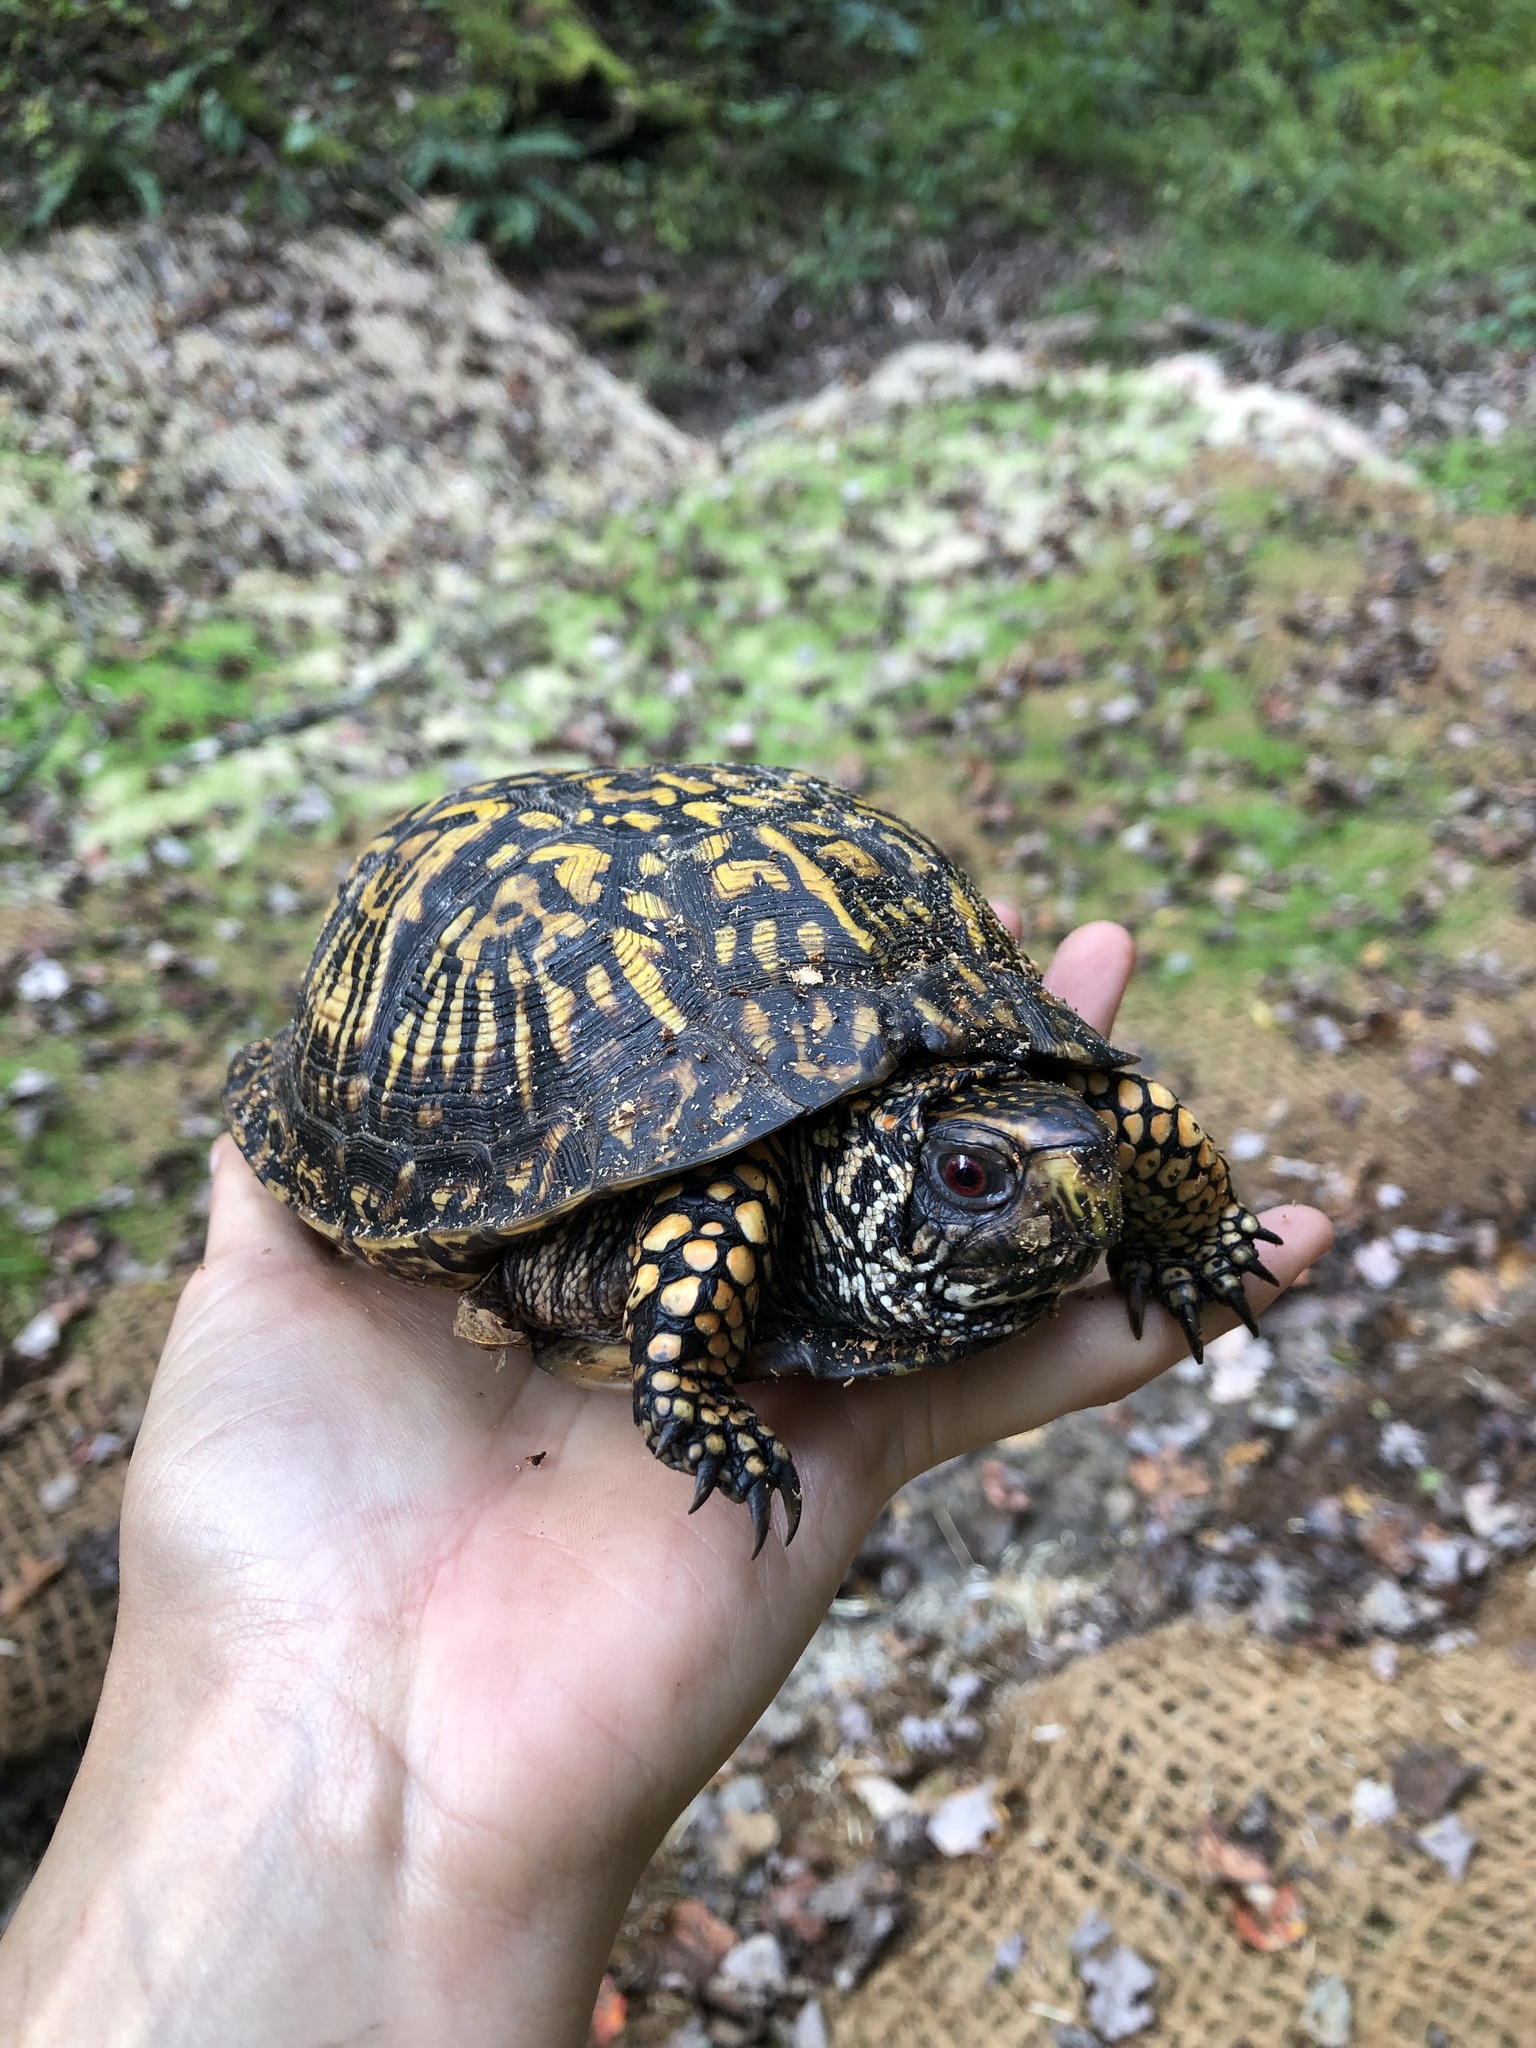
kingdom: Animalia
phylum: Chordata
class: Testudines
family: Emydidae
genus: Terrapene
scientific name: Terrapene carolina
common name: Common box turtle
